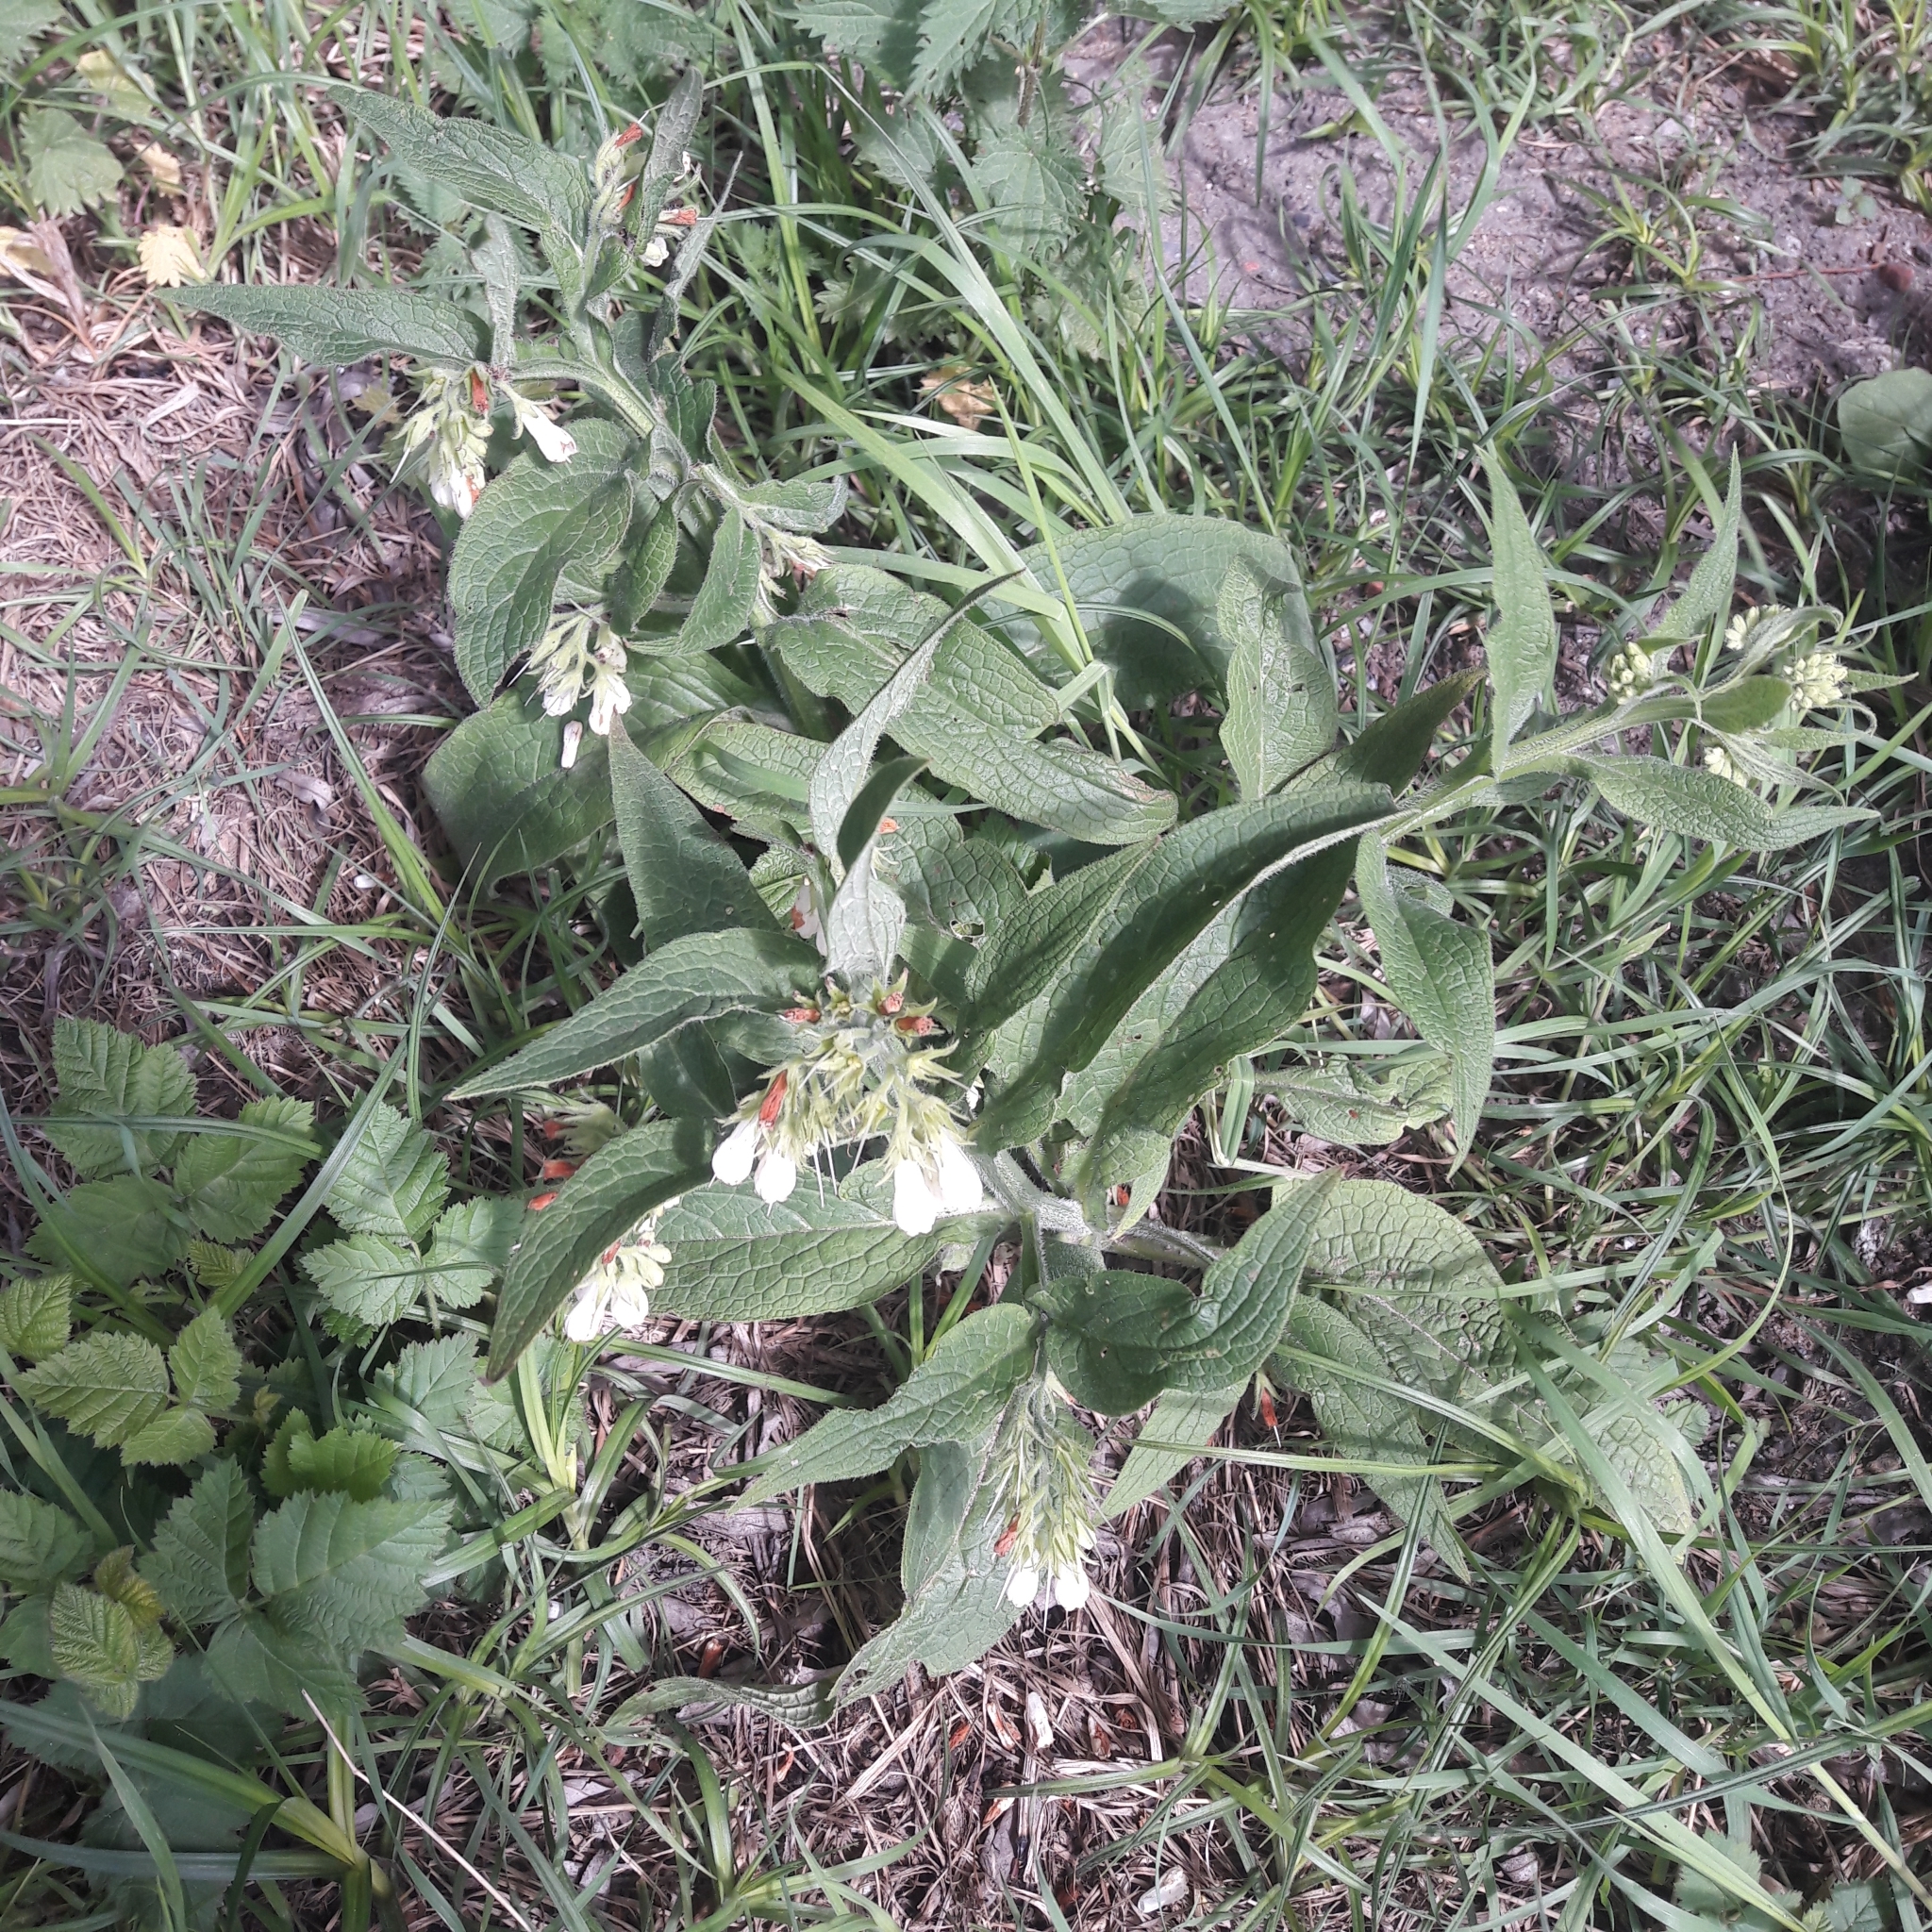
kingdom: Plantae
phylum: Tracheophyta
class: Magnoliopsida
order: Boraginales
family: Boraginaceae
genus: Symphytum
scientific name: Symphytum officinale
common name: Common comfrey
